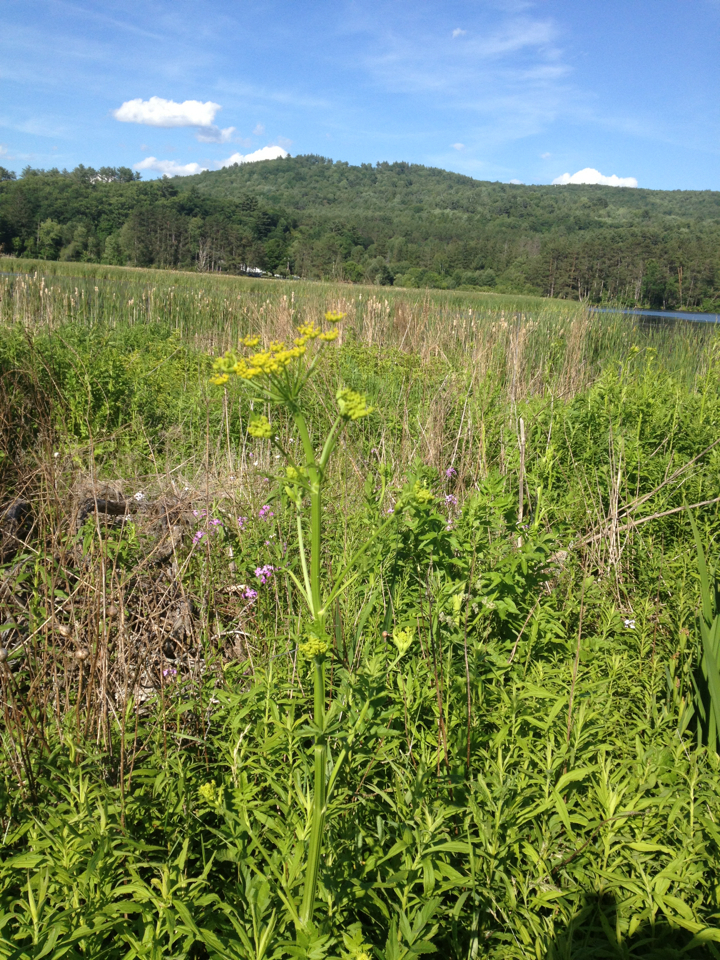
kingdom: Plantae
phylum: Tracheophyta
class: Magnoliopsida
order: Apiales
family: Apiaceae
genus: Pastinaca
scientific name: Pastinaca sativa
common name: Wild parsnip
